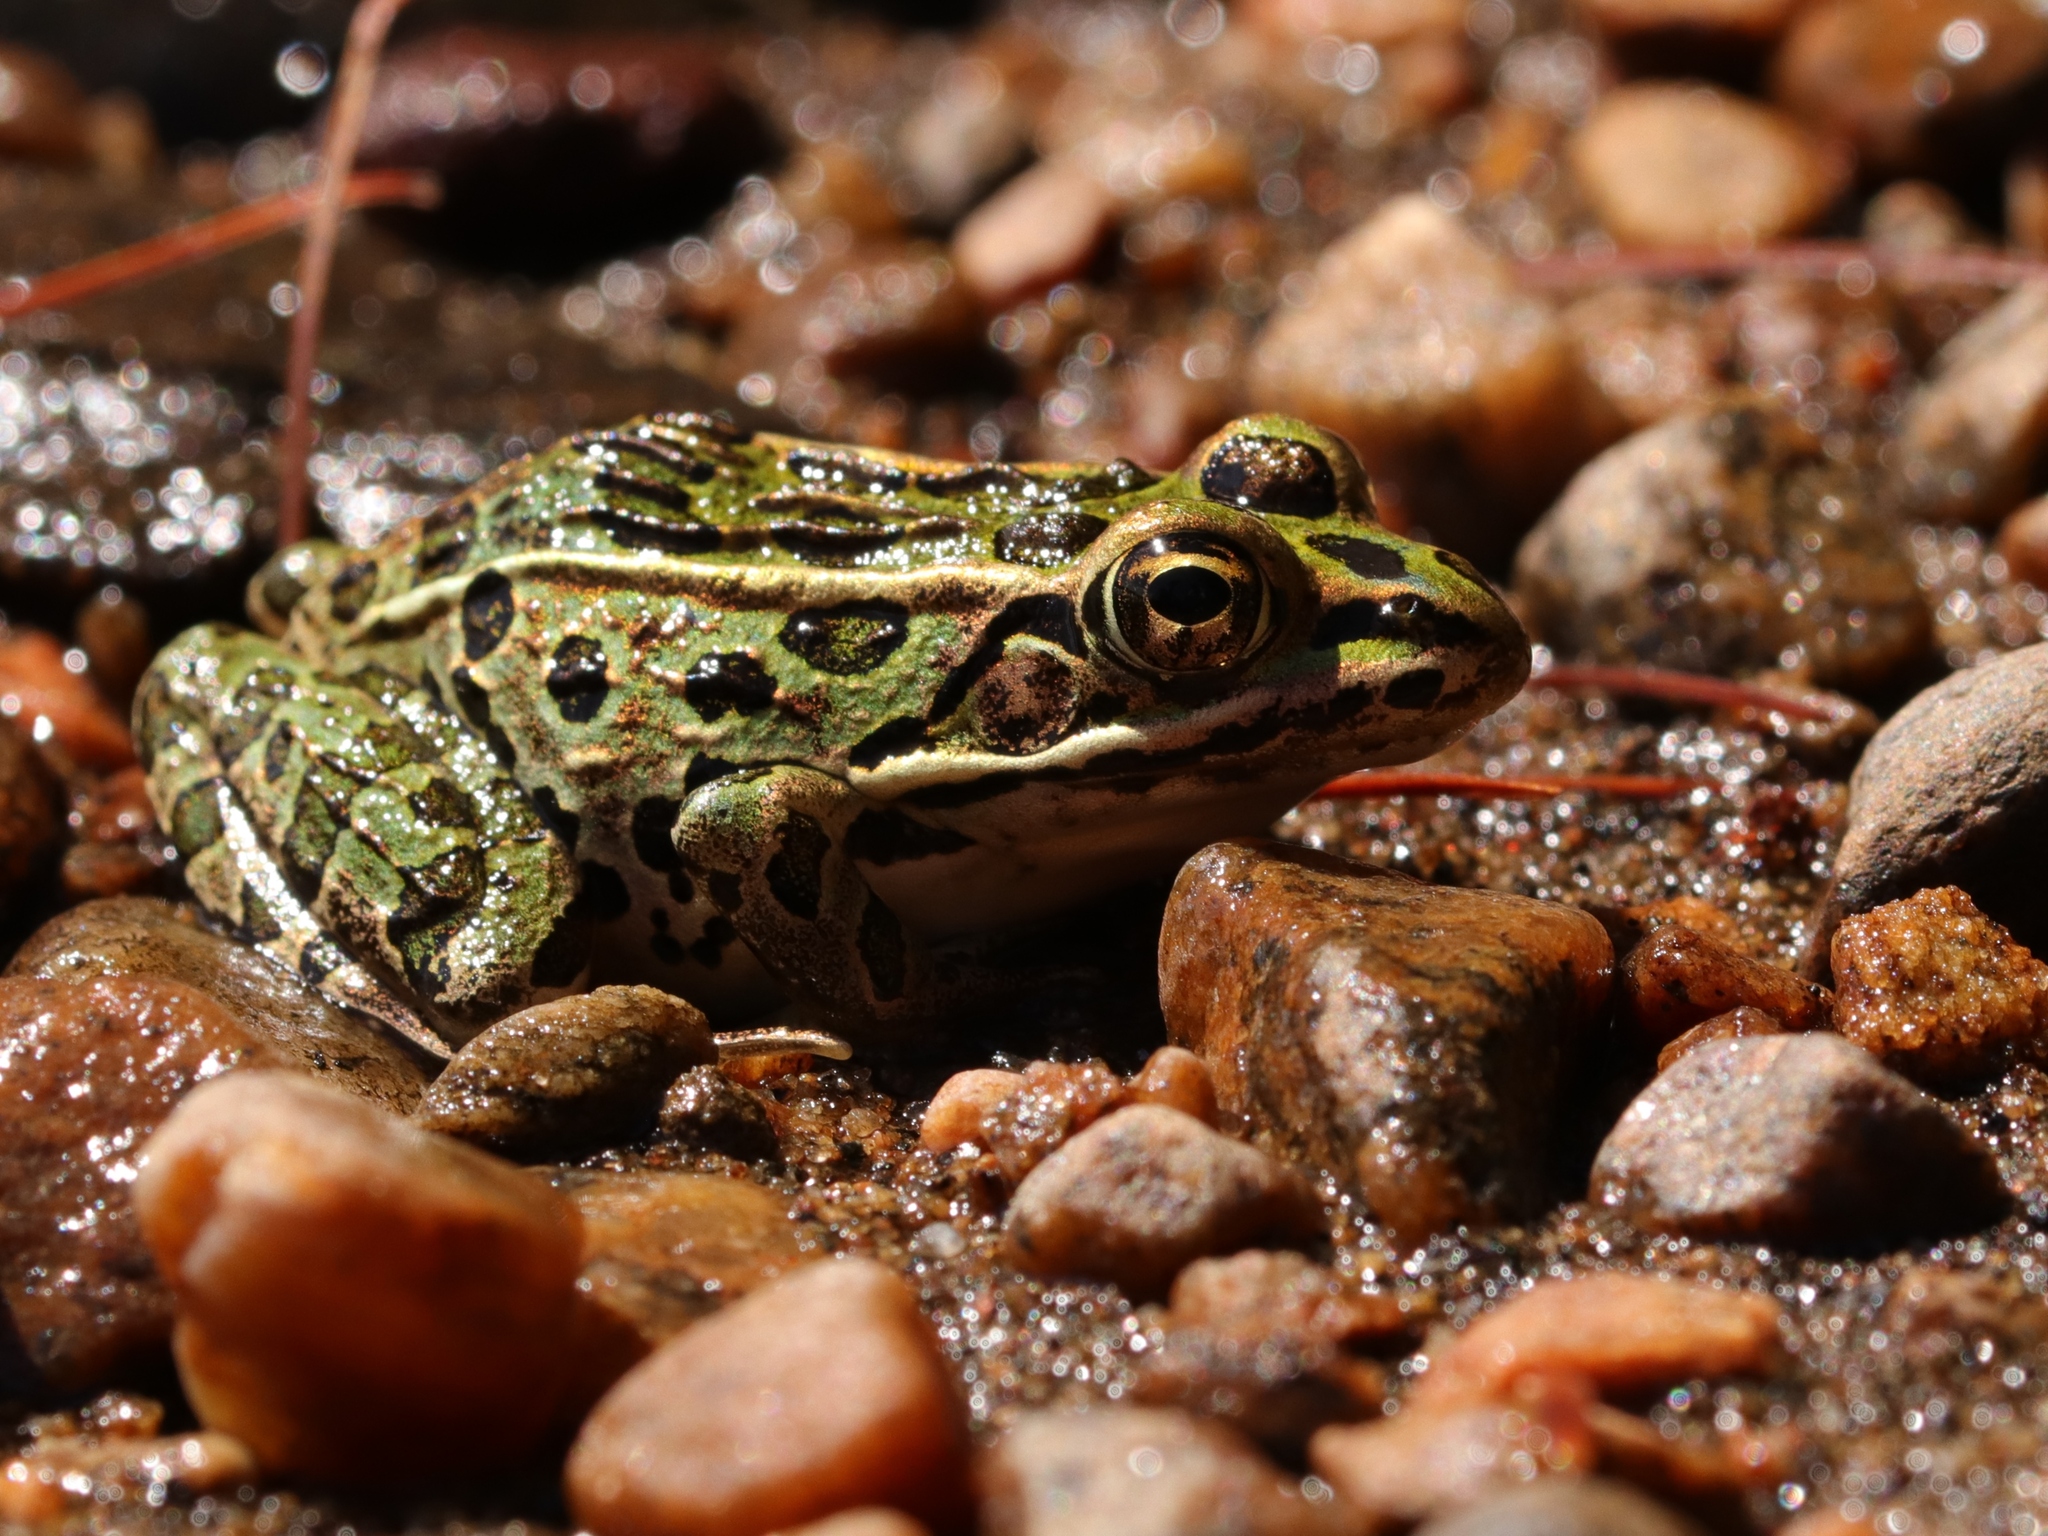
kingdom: Animalia
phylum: Chordata
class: Amphibia
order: Anura
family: Ranidae
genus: Lithobates
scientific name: Lithobates pipiens
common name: Northern leopard frog
